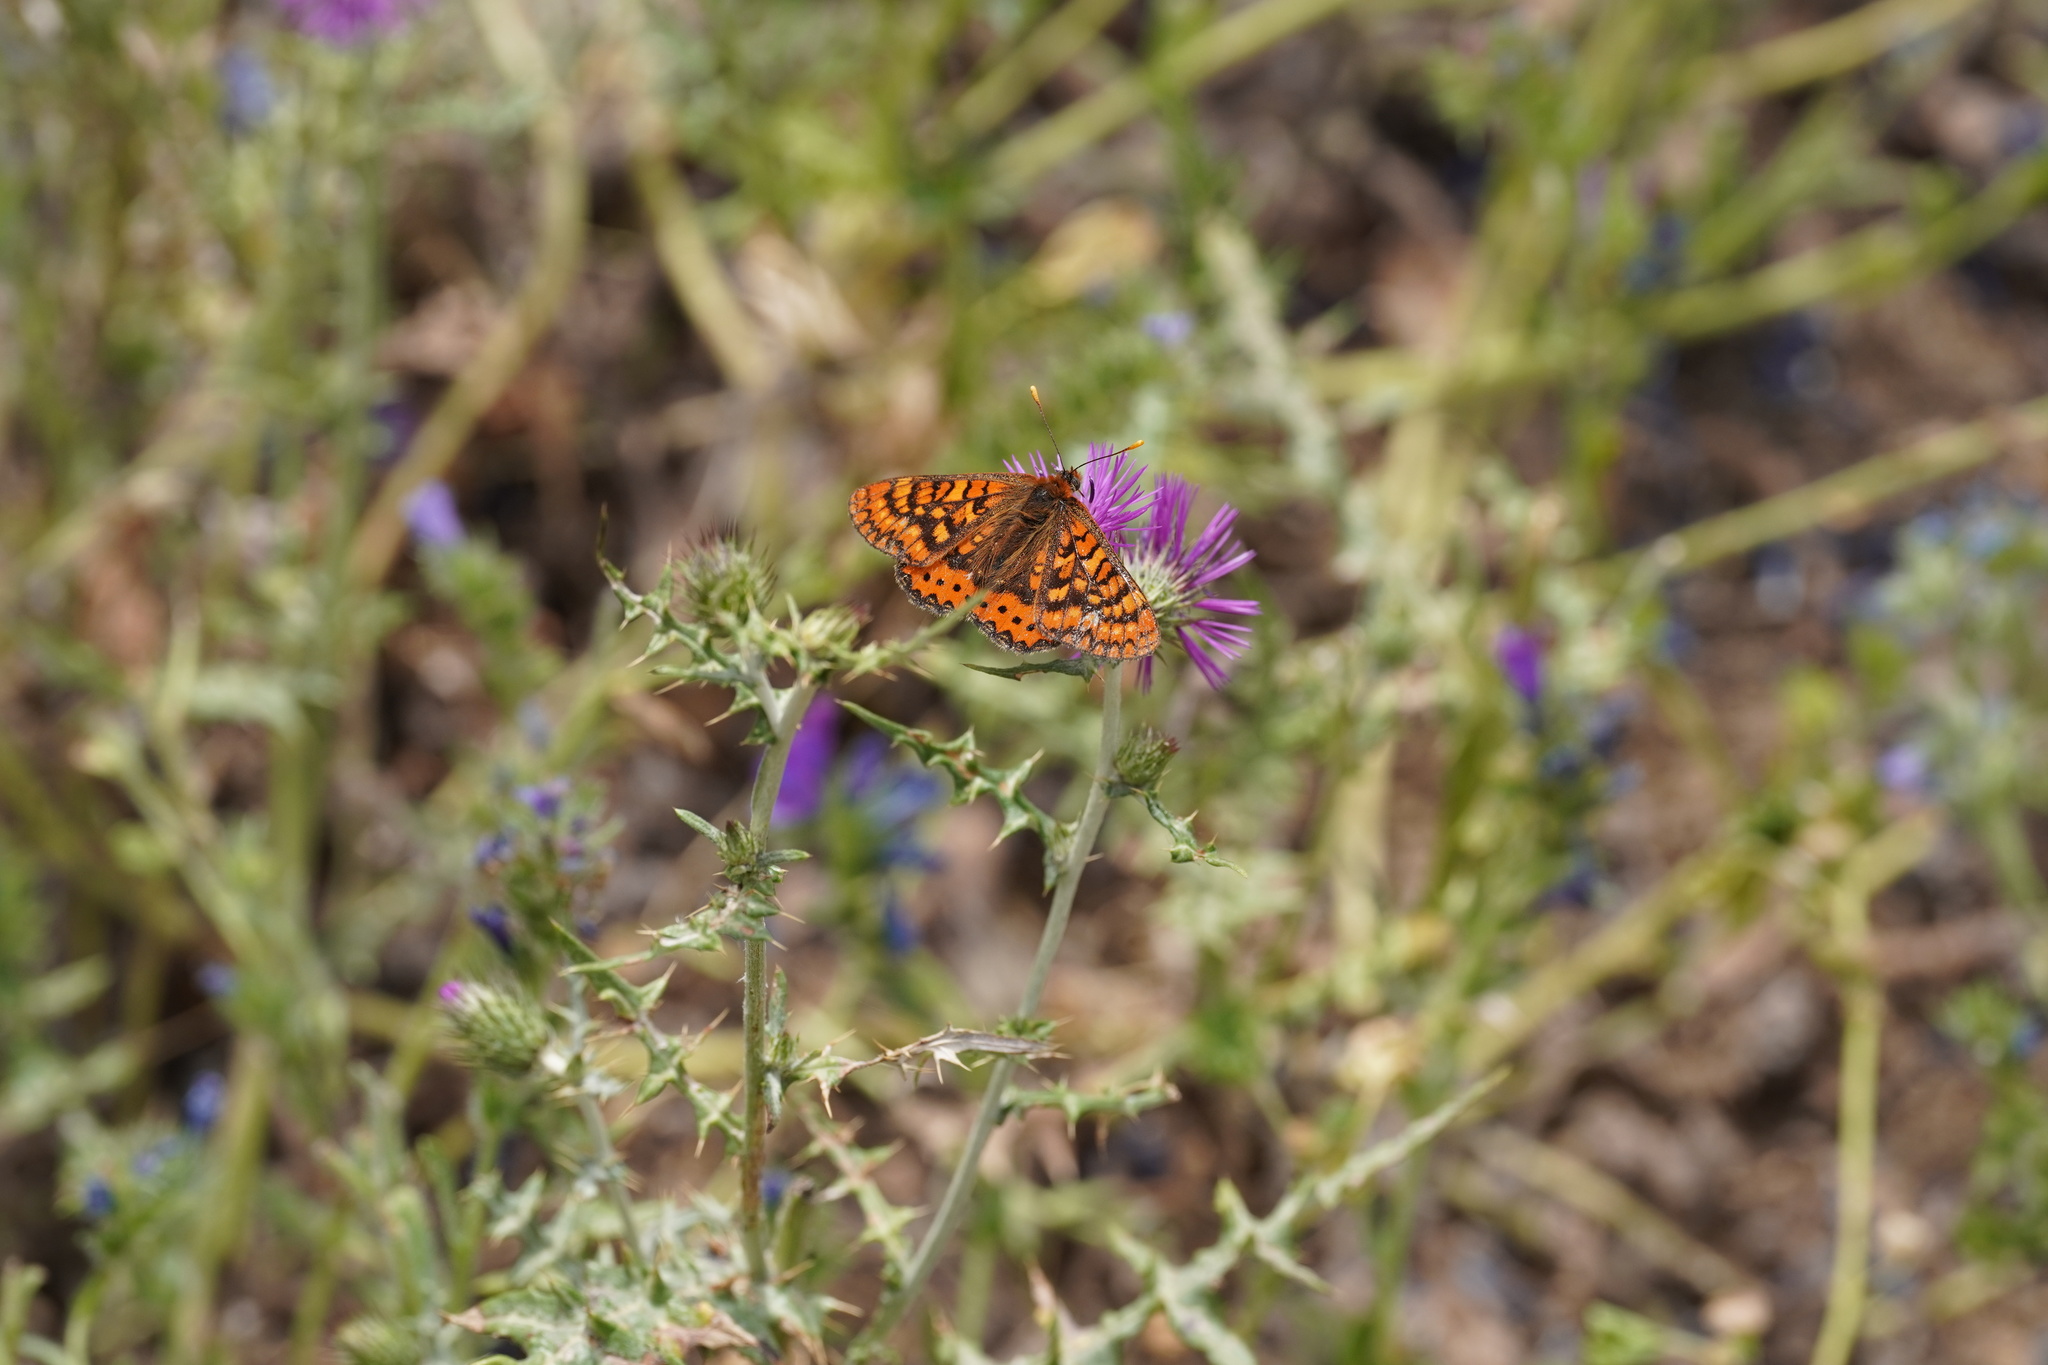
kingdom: Animalia
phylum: Arthropoda
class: Insecta
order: Lepidoptera
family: Nymphalidae
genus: Euphydryas
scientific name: Euphydryas aurinia
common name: Marsh fritillary
